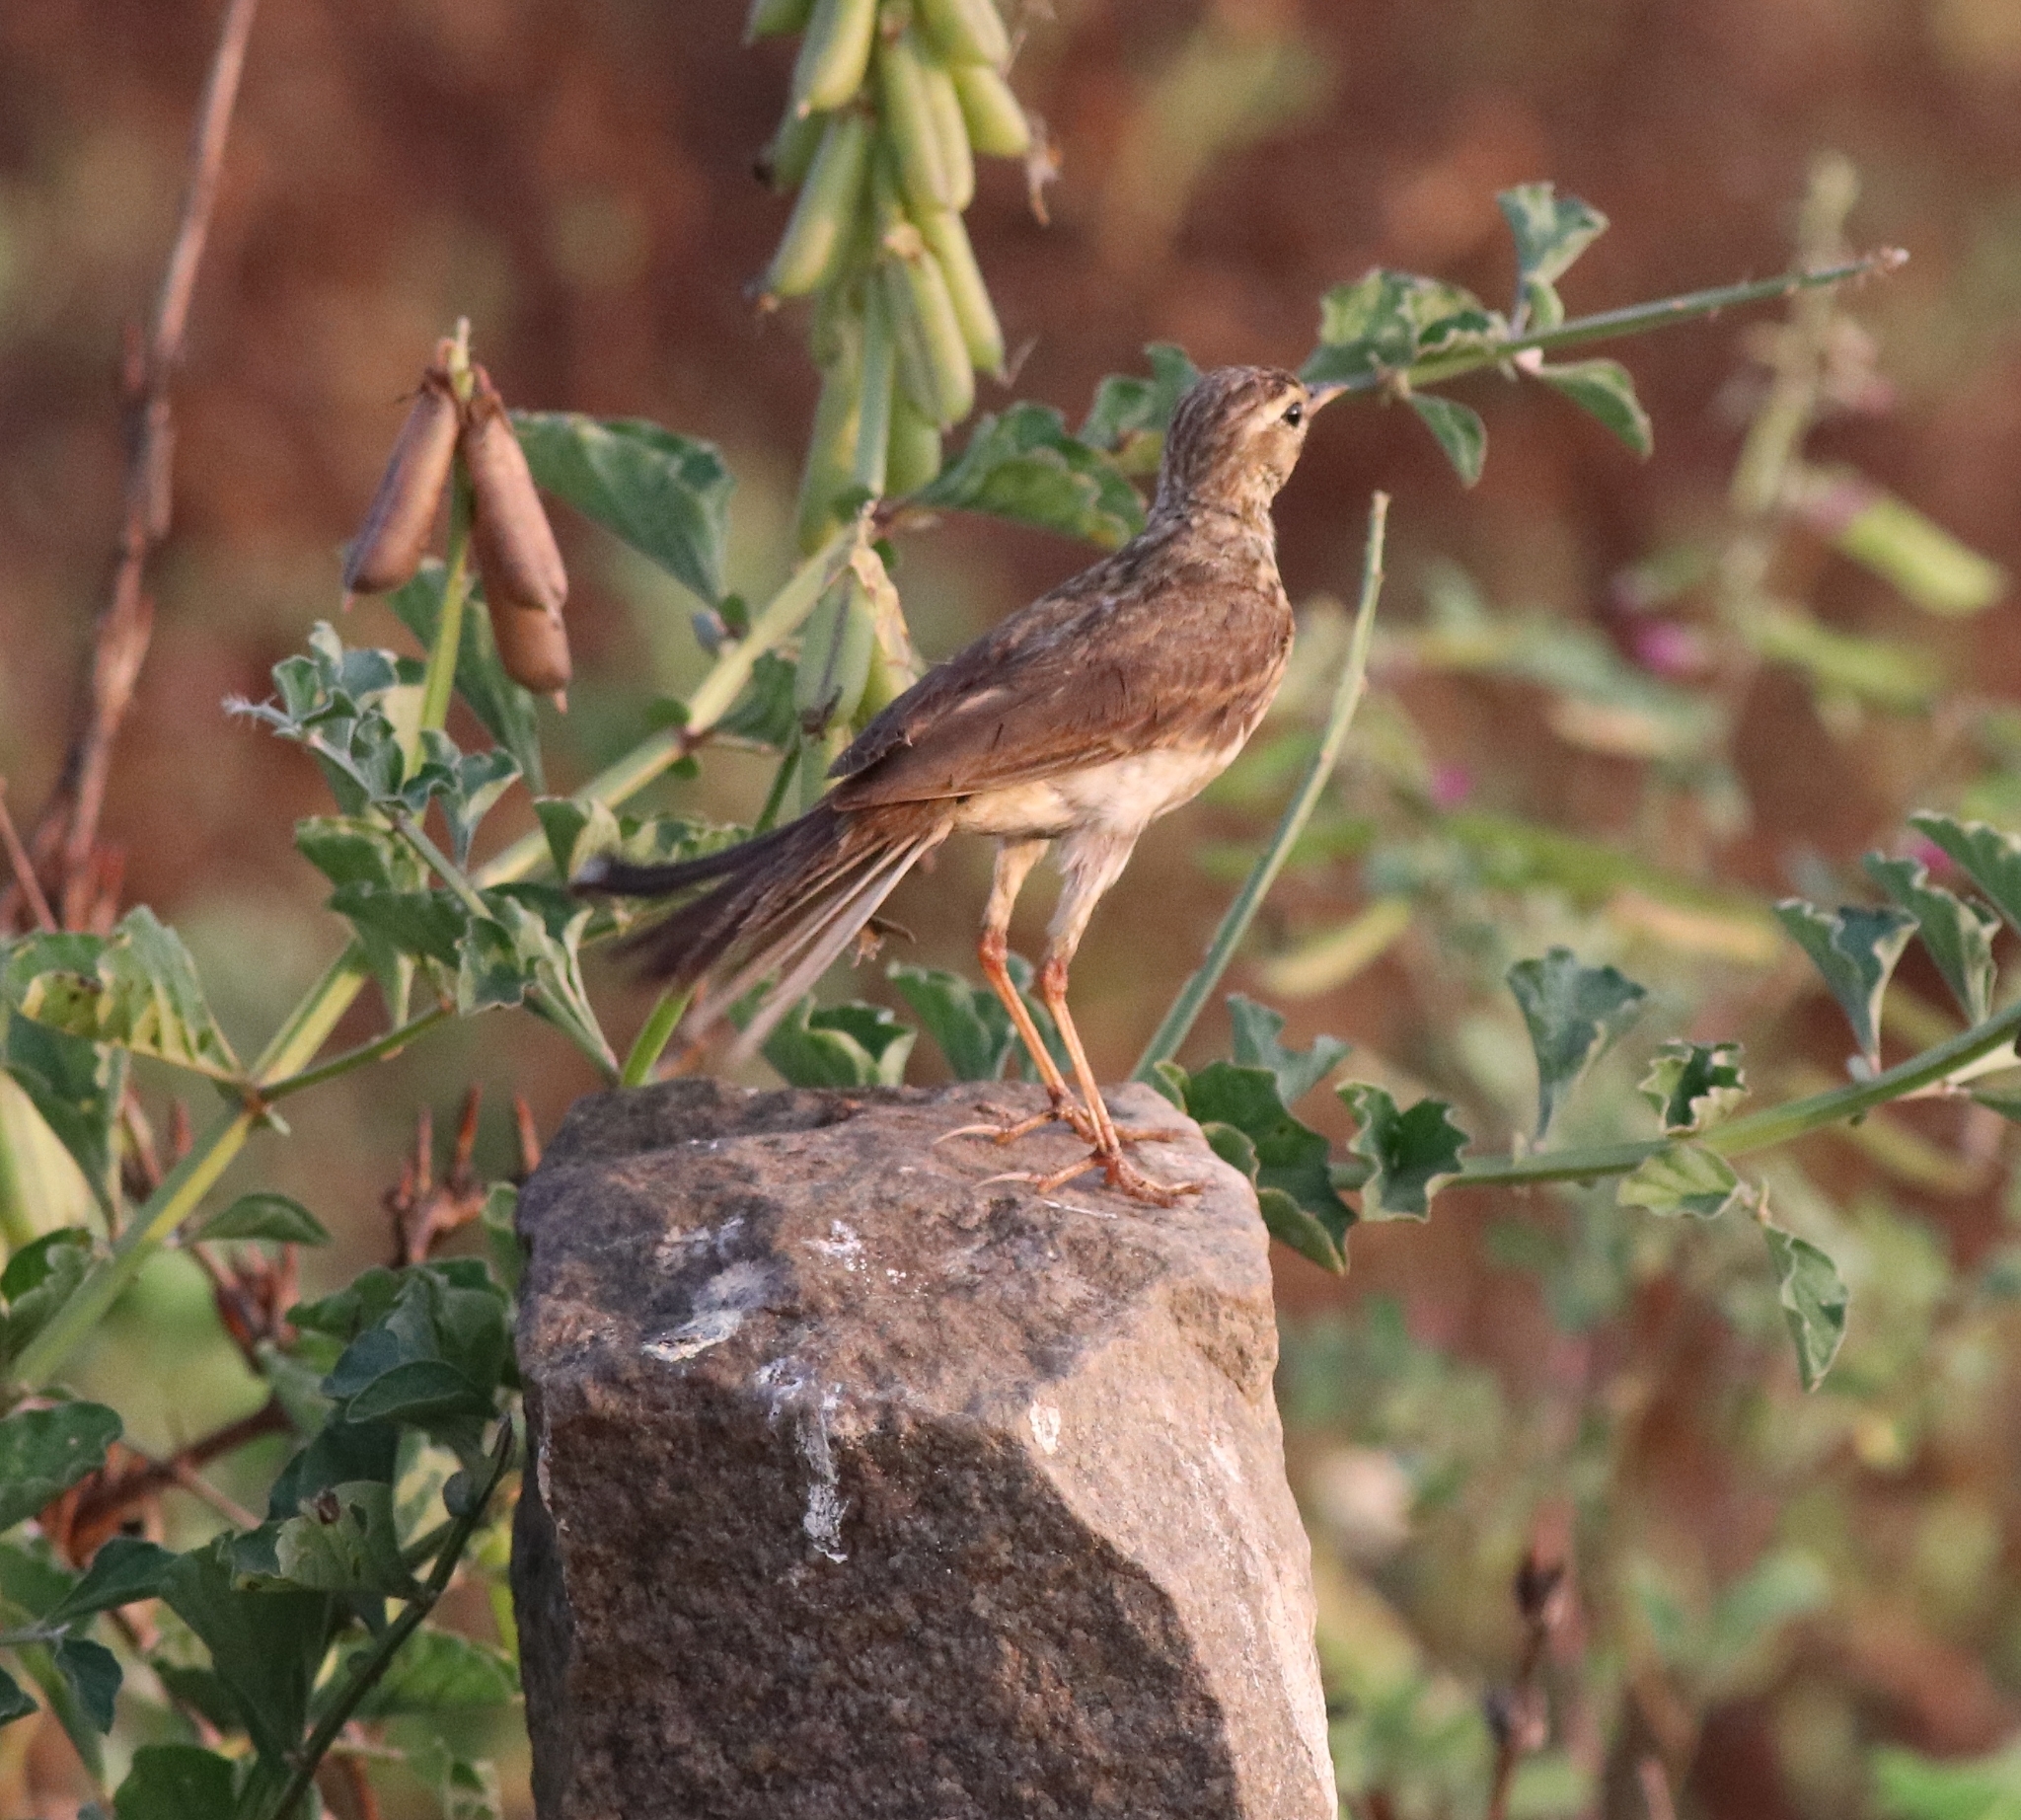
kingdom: Animalia
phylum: Chordata
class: Aves
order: Passeriformes
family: Motacillidae
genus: Anthus
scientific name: Anthus rufulus
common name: Paddyfield pipit
